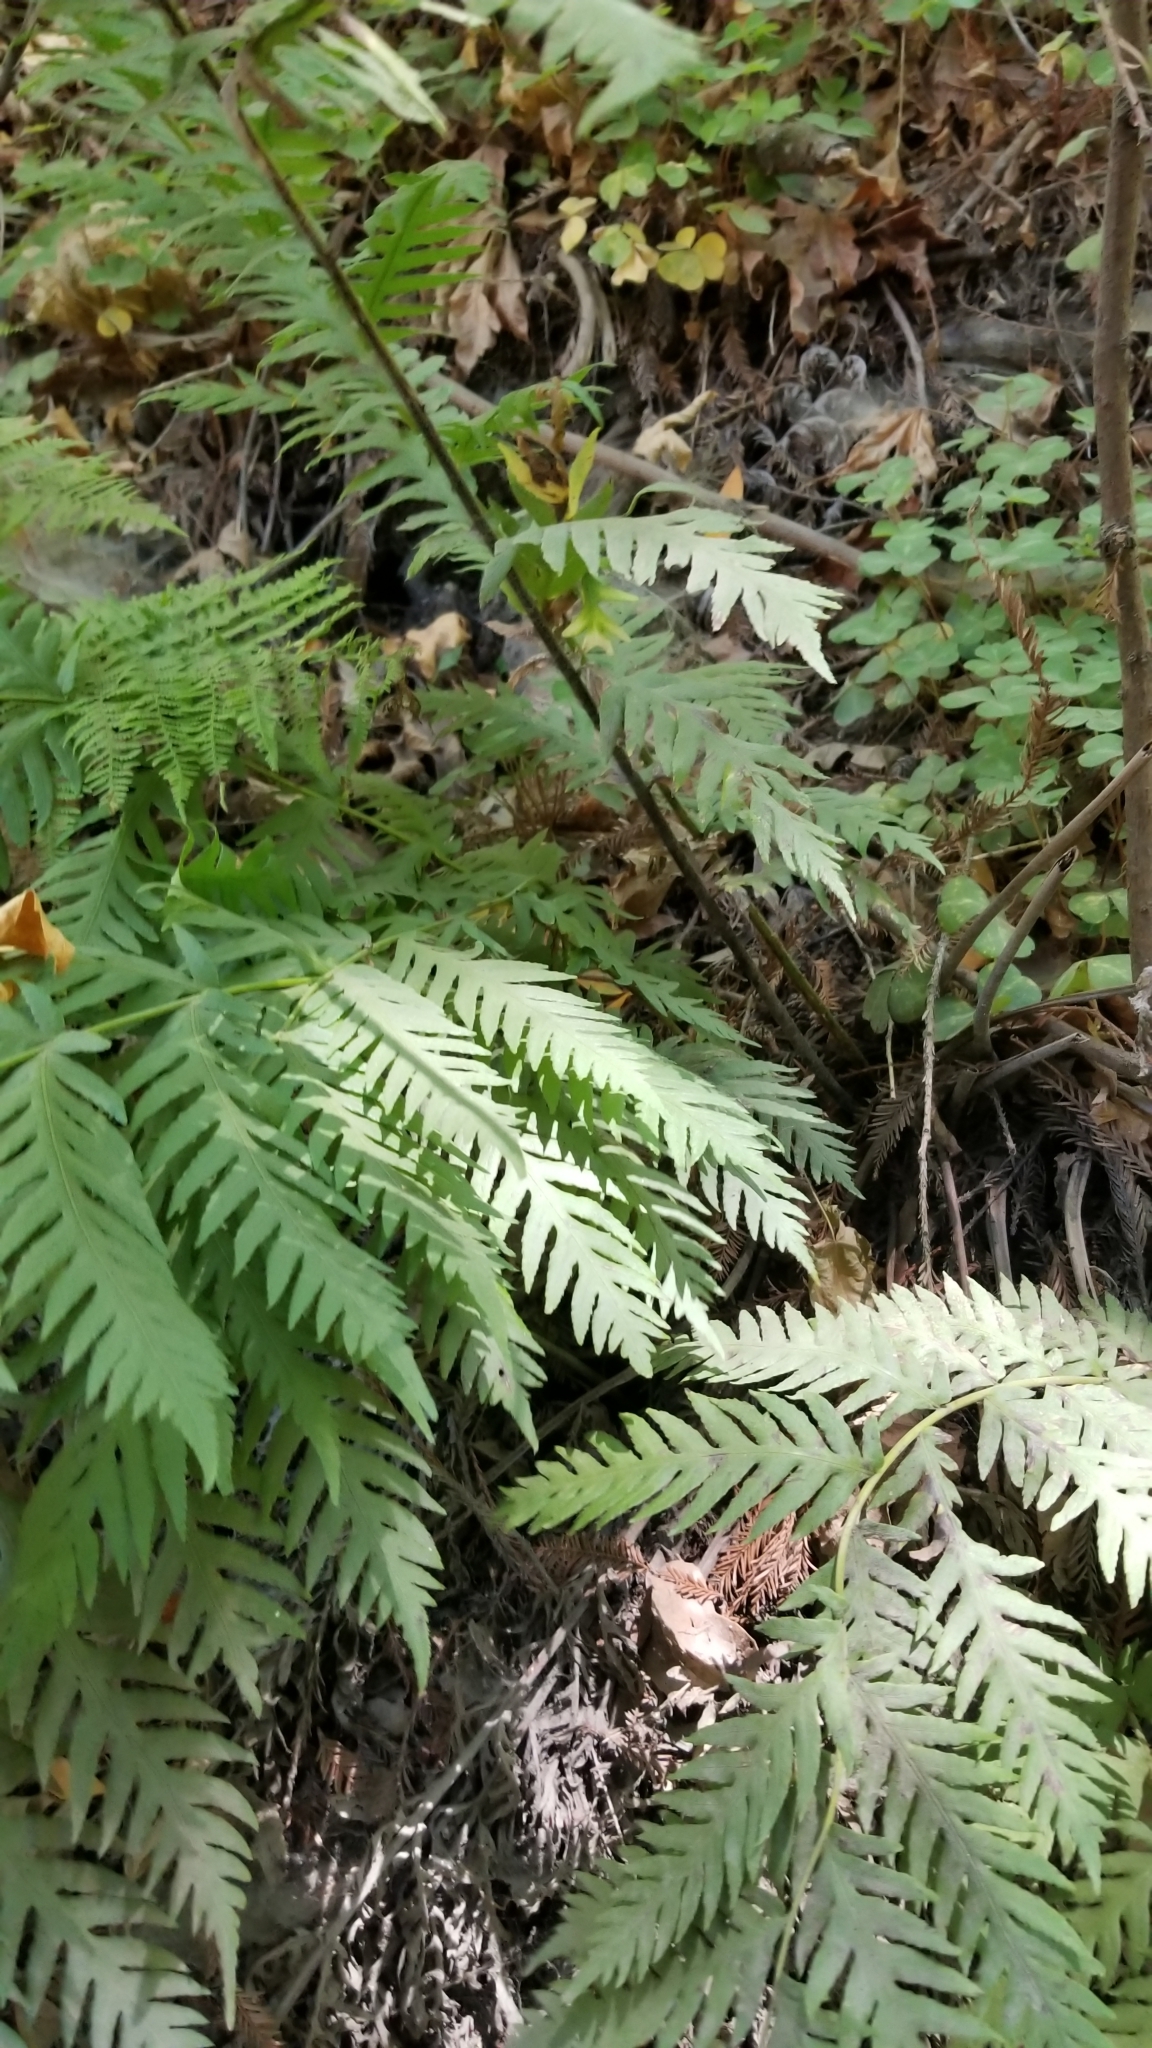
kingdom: Plantae
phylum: Tracheophyta
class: Polypodiopsida
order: Polypodiales
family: Blechnaceae
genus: Woodwardia
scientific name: Woodwardia fimbriata
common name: Giant chain fern
